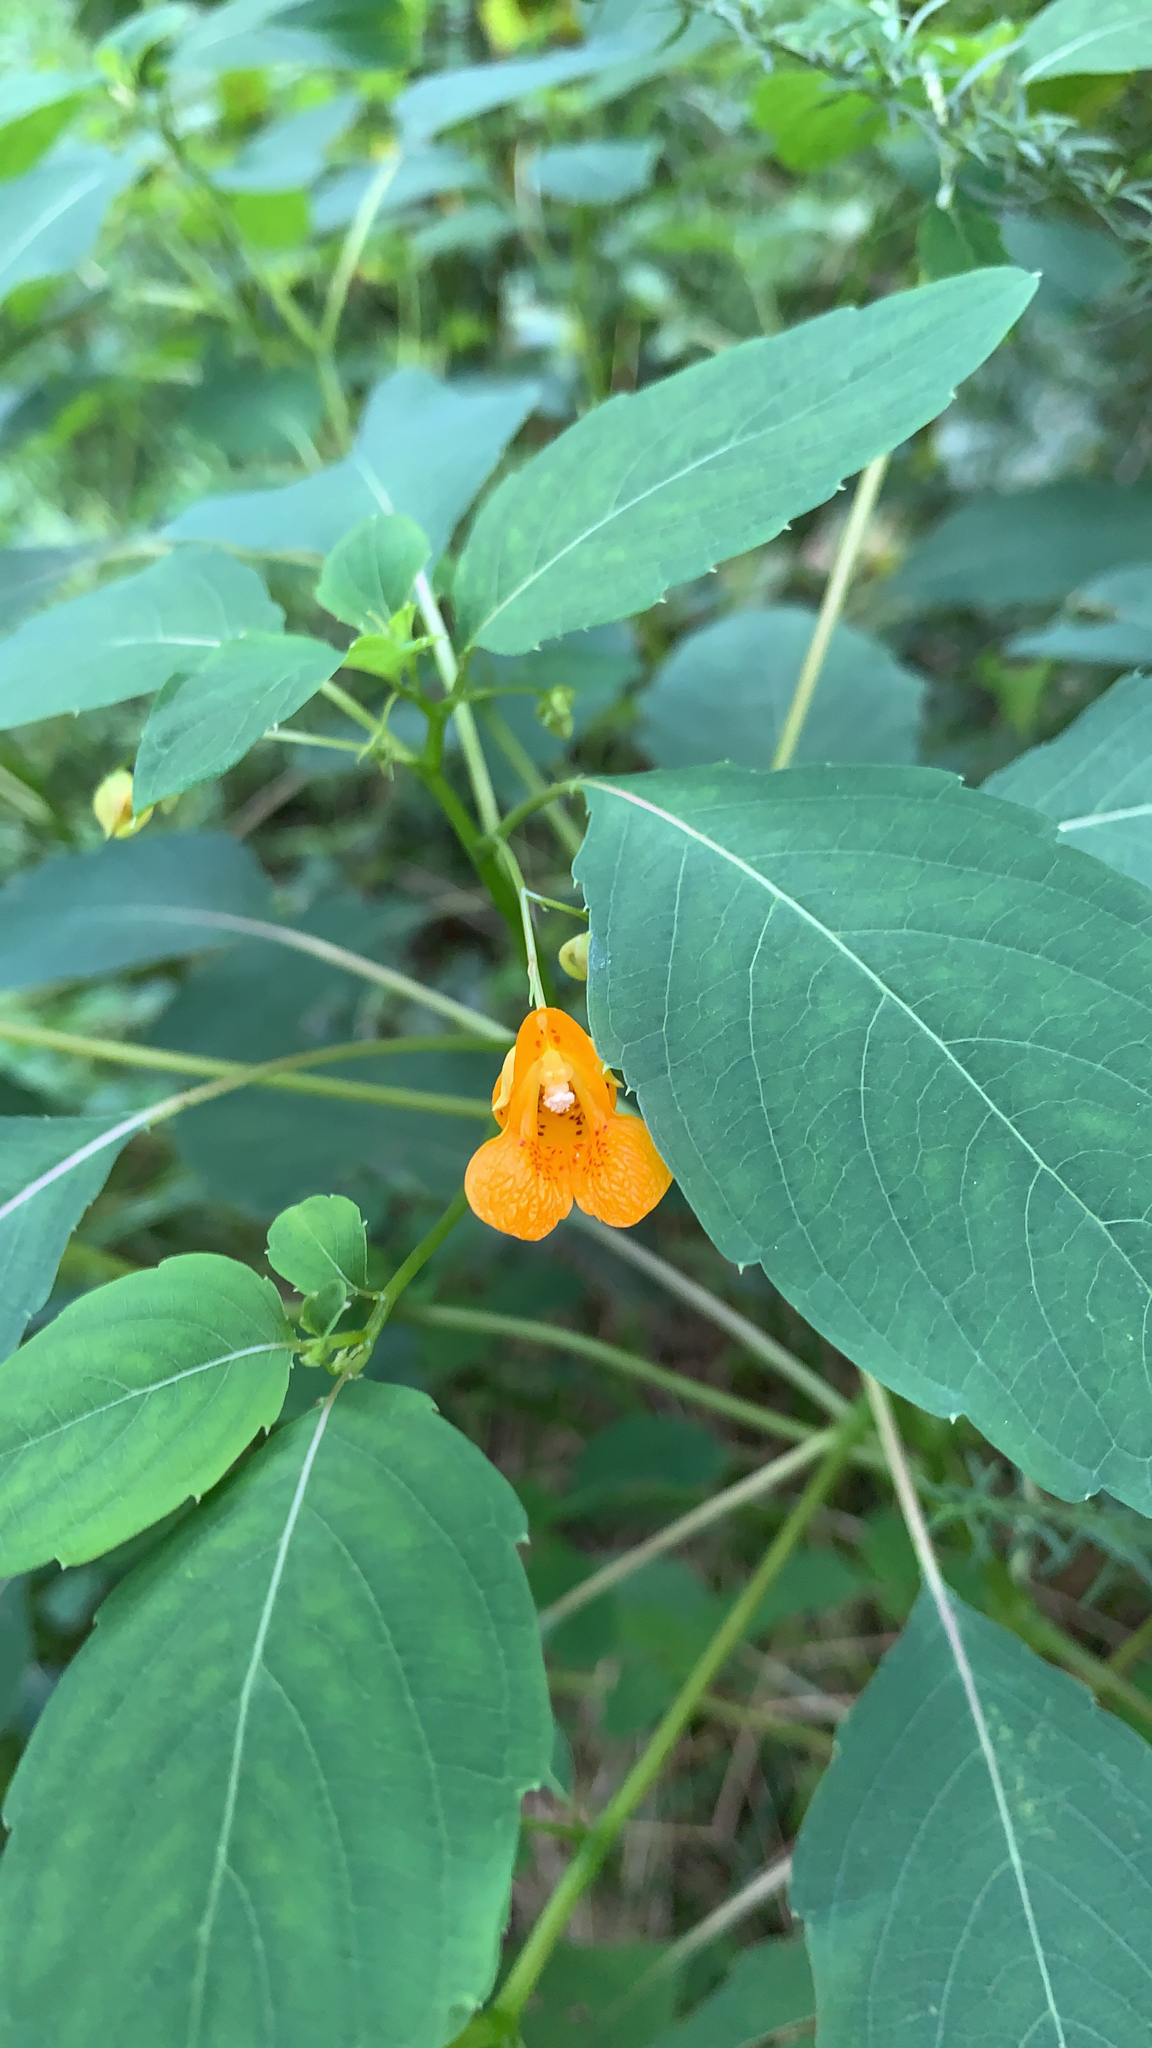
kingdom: Plantae
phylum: Tracheophyta
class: Magnoliopsida
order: Ericales
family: Balsaminaceae
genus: Impatiens
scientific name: Impatiens capensis
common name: Orange balsam
